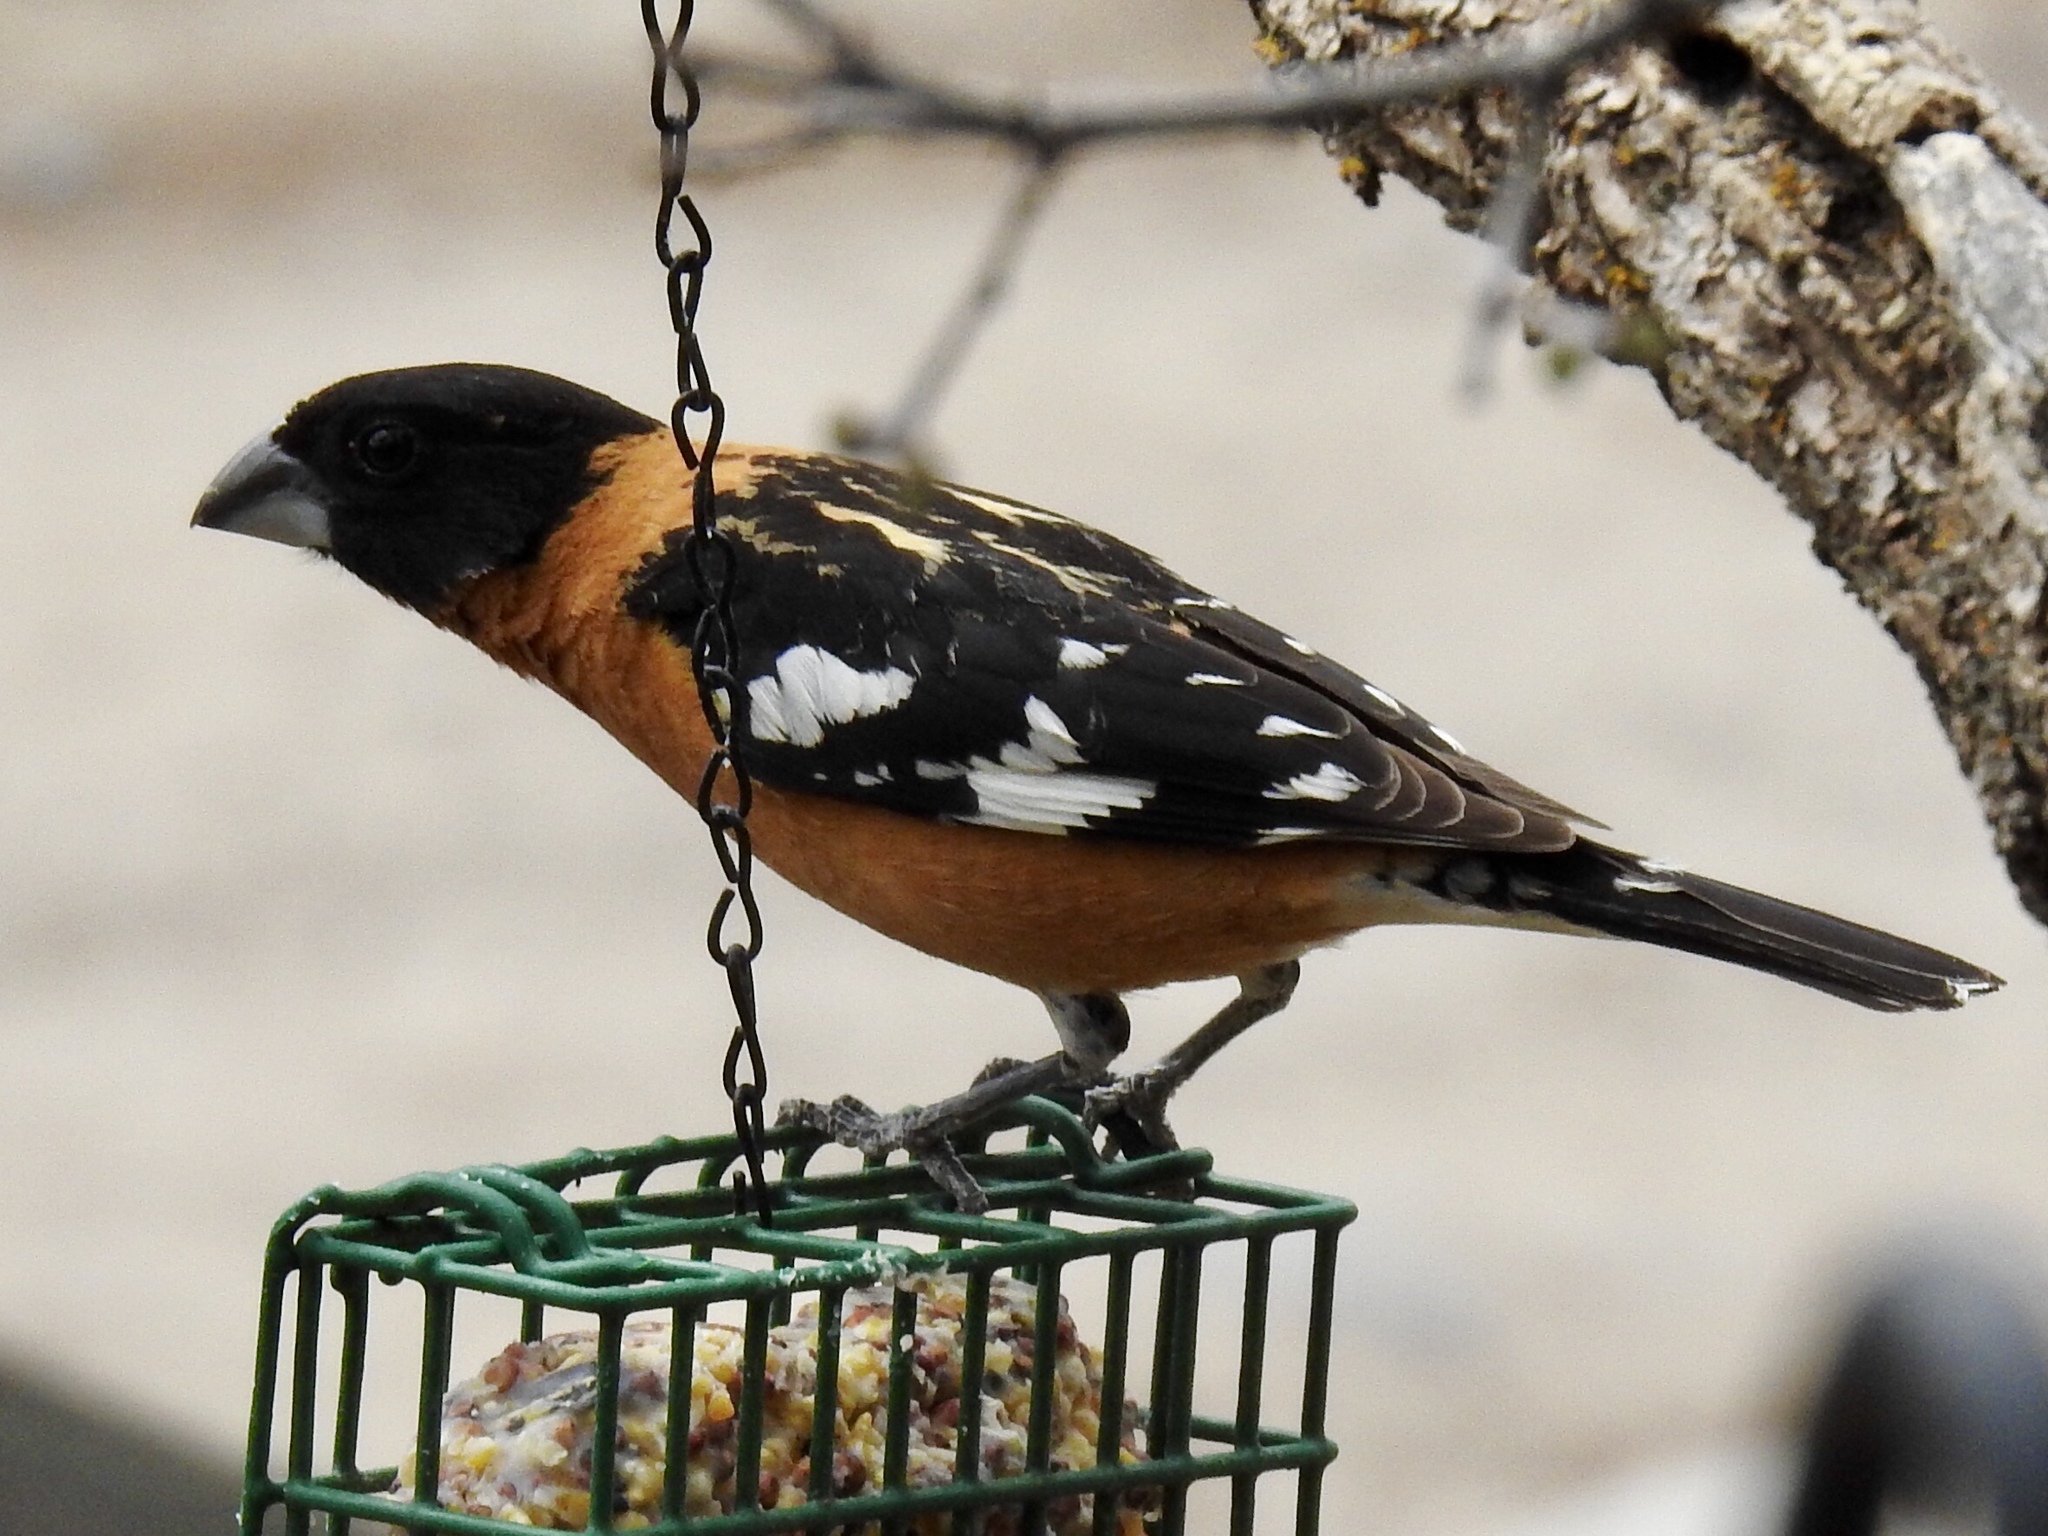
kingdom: Animalia
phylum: Chordata
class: Aves
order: Passeriformes
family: Cardinalidae
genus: Pheucticus
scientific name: Pheucticus melanocephalus
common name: Black-headed grosbeak
